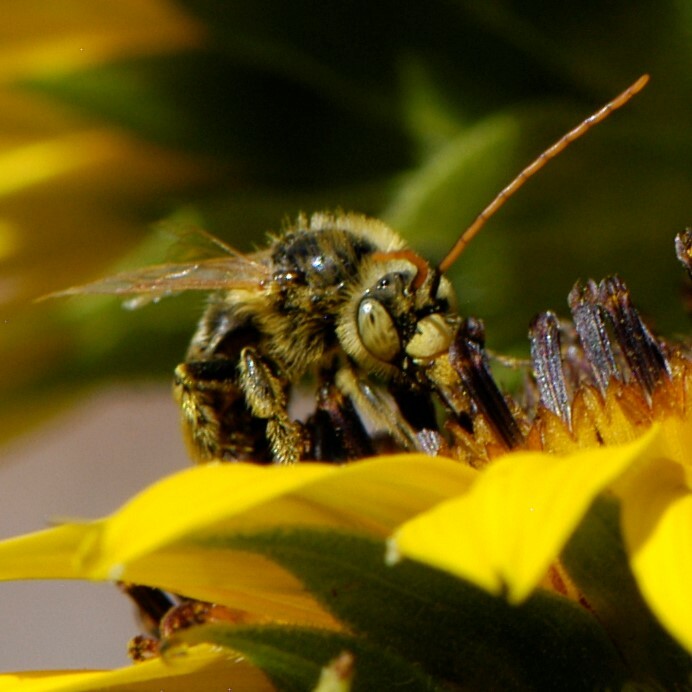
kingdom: Animalia
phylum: Arthropoda
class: Insecta
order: Hymenoptera
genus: Eumelissodes
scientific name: Eumelissodes
